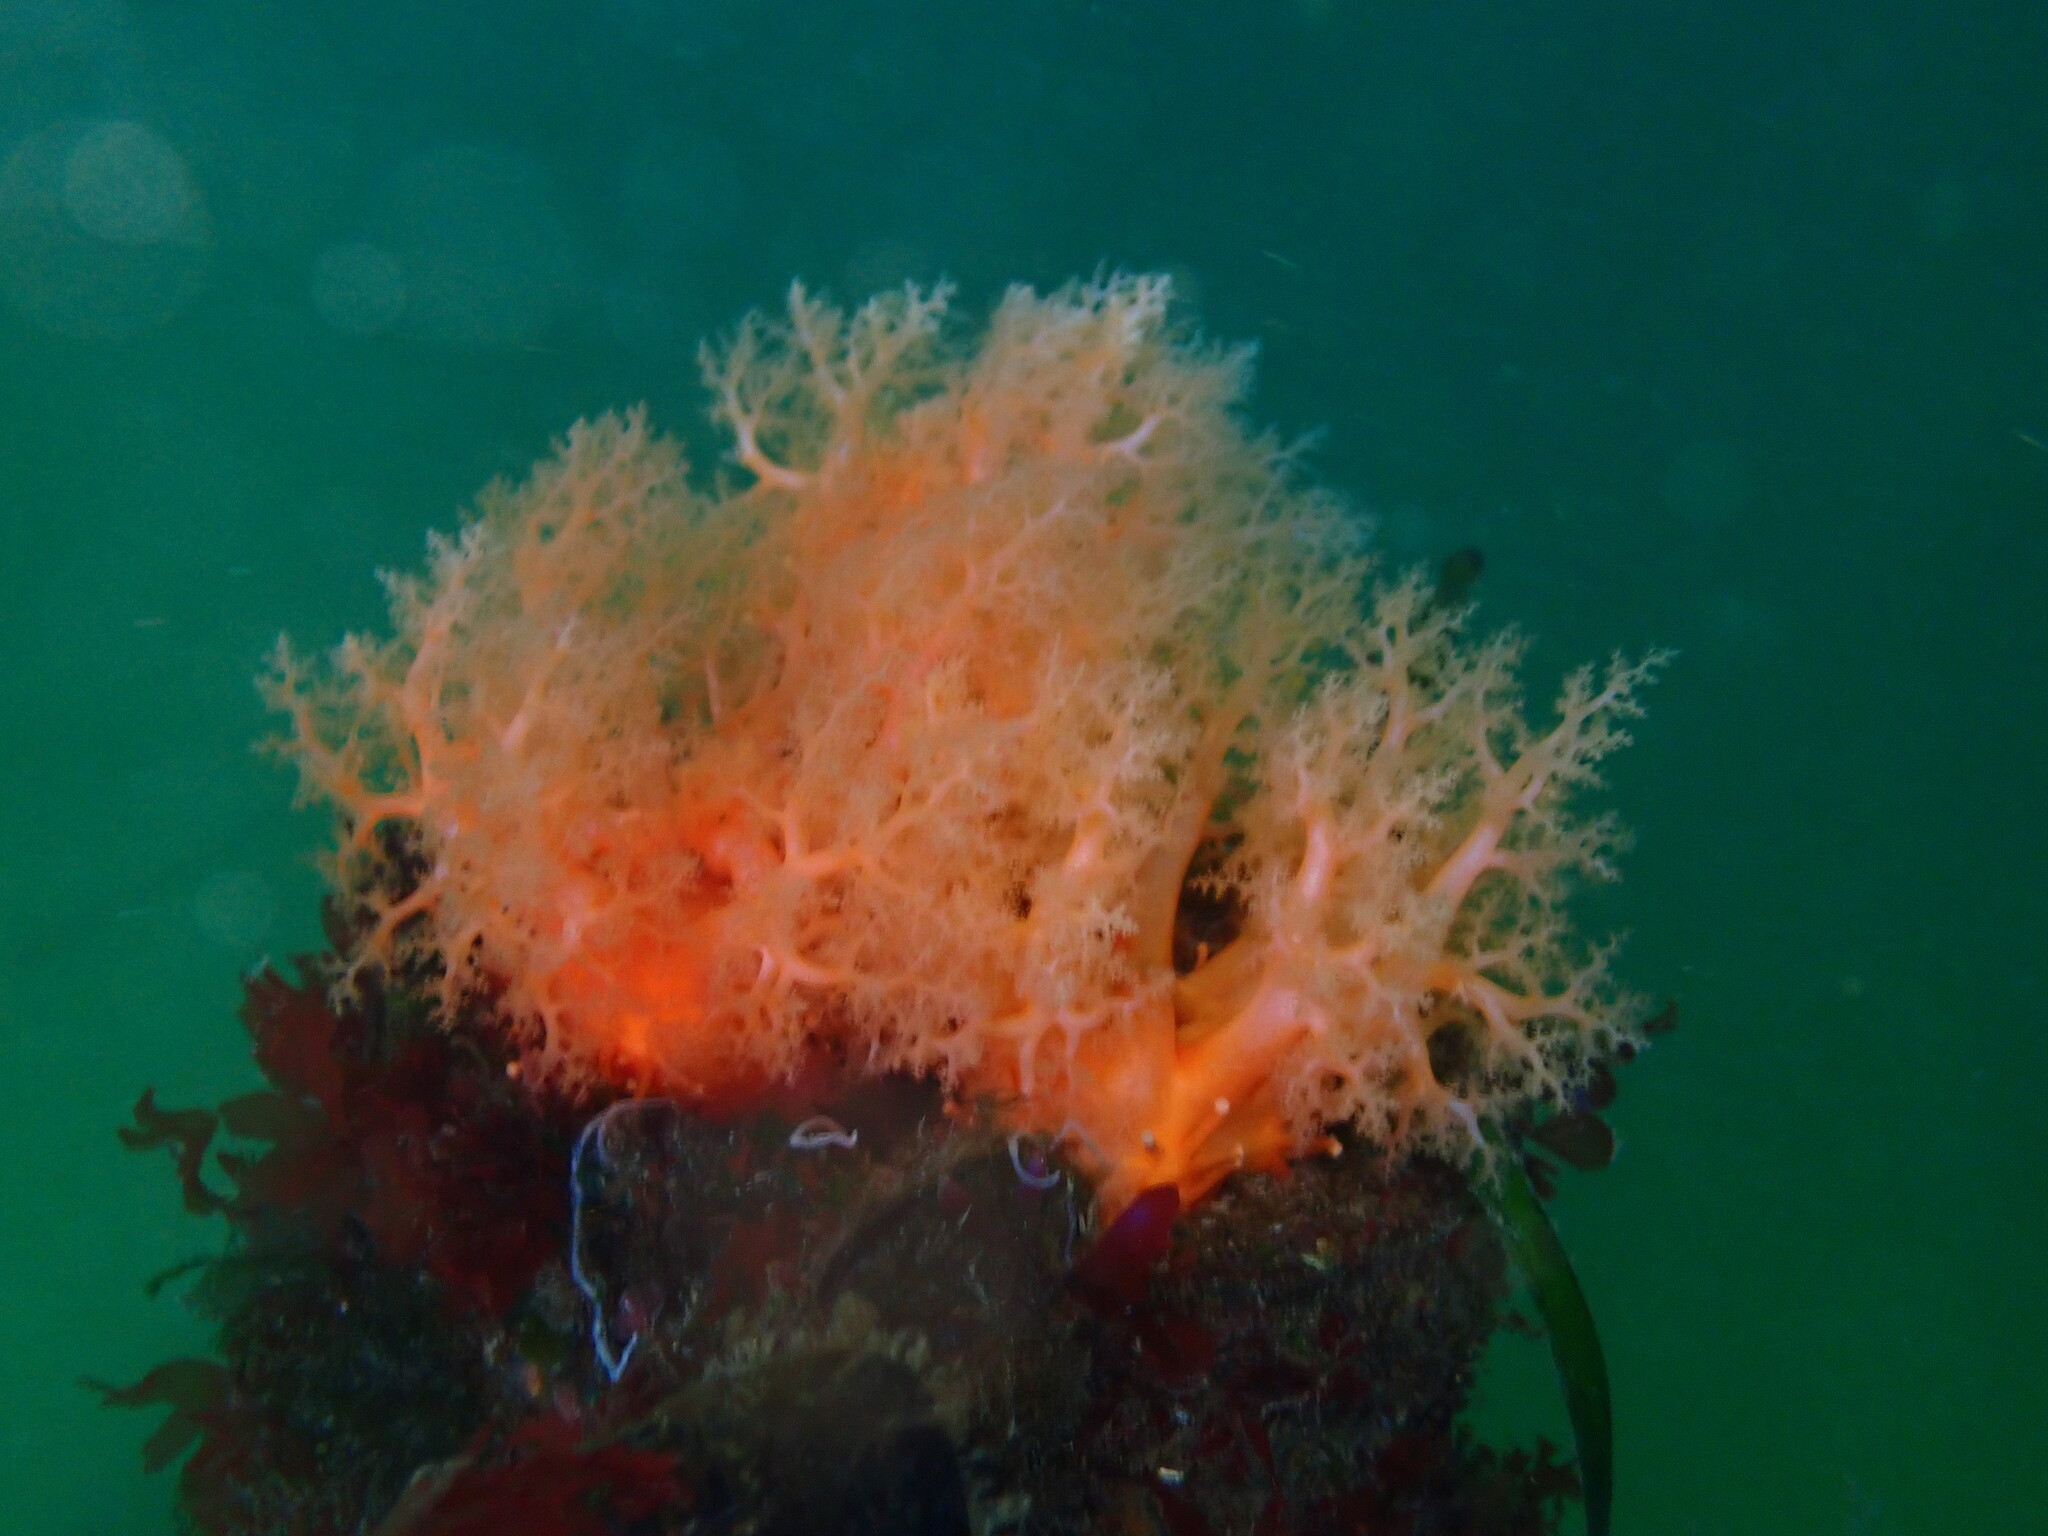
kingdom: Animalia
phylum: Echinodermata
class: Holothuroidea
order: Dendrochirotida
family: Cucumariidae
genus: Cucumaria
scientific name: Cucumaria miniata
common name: Orange sea cucumber
